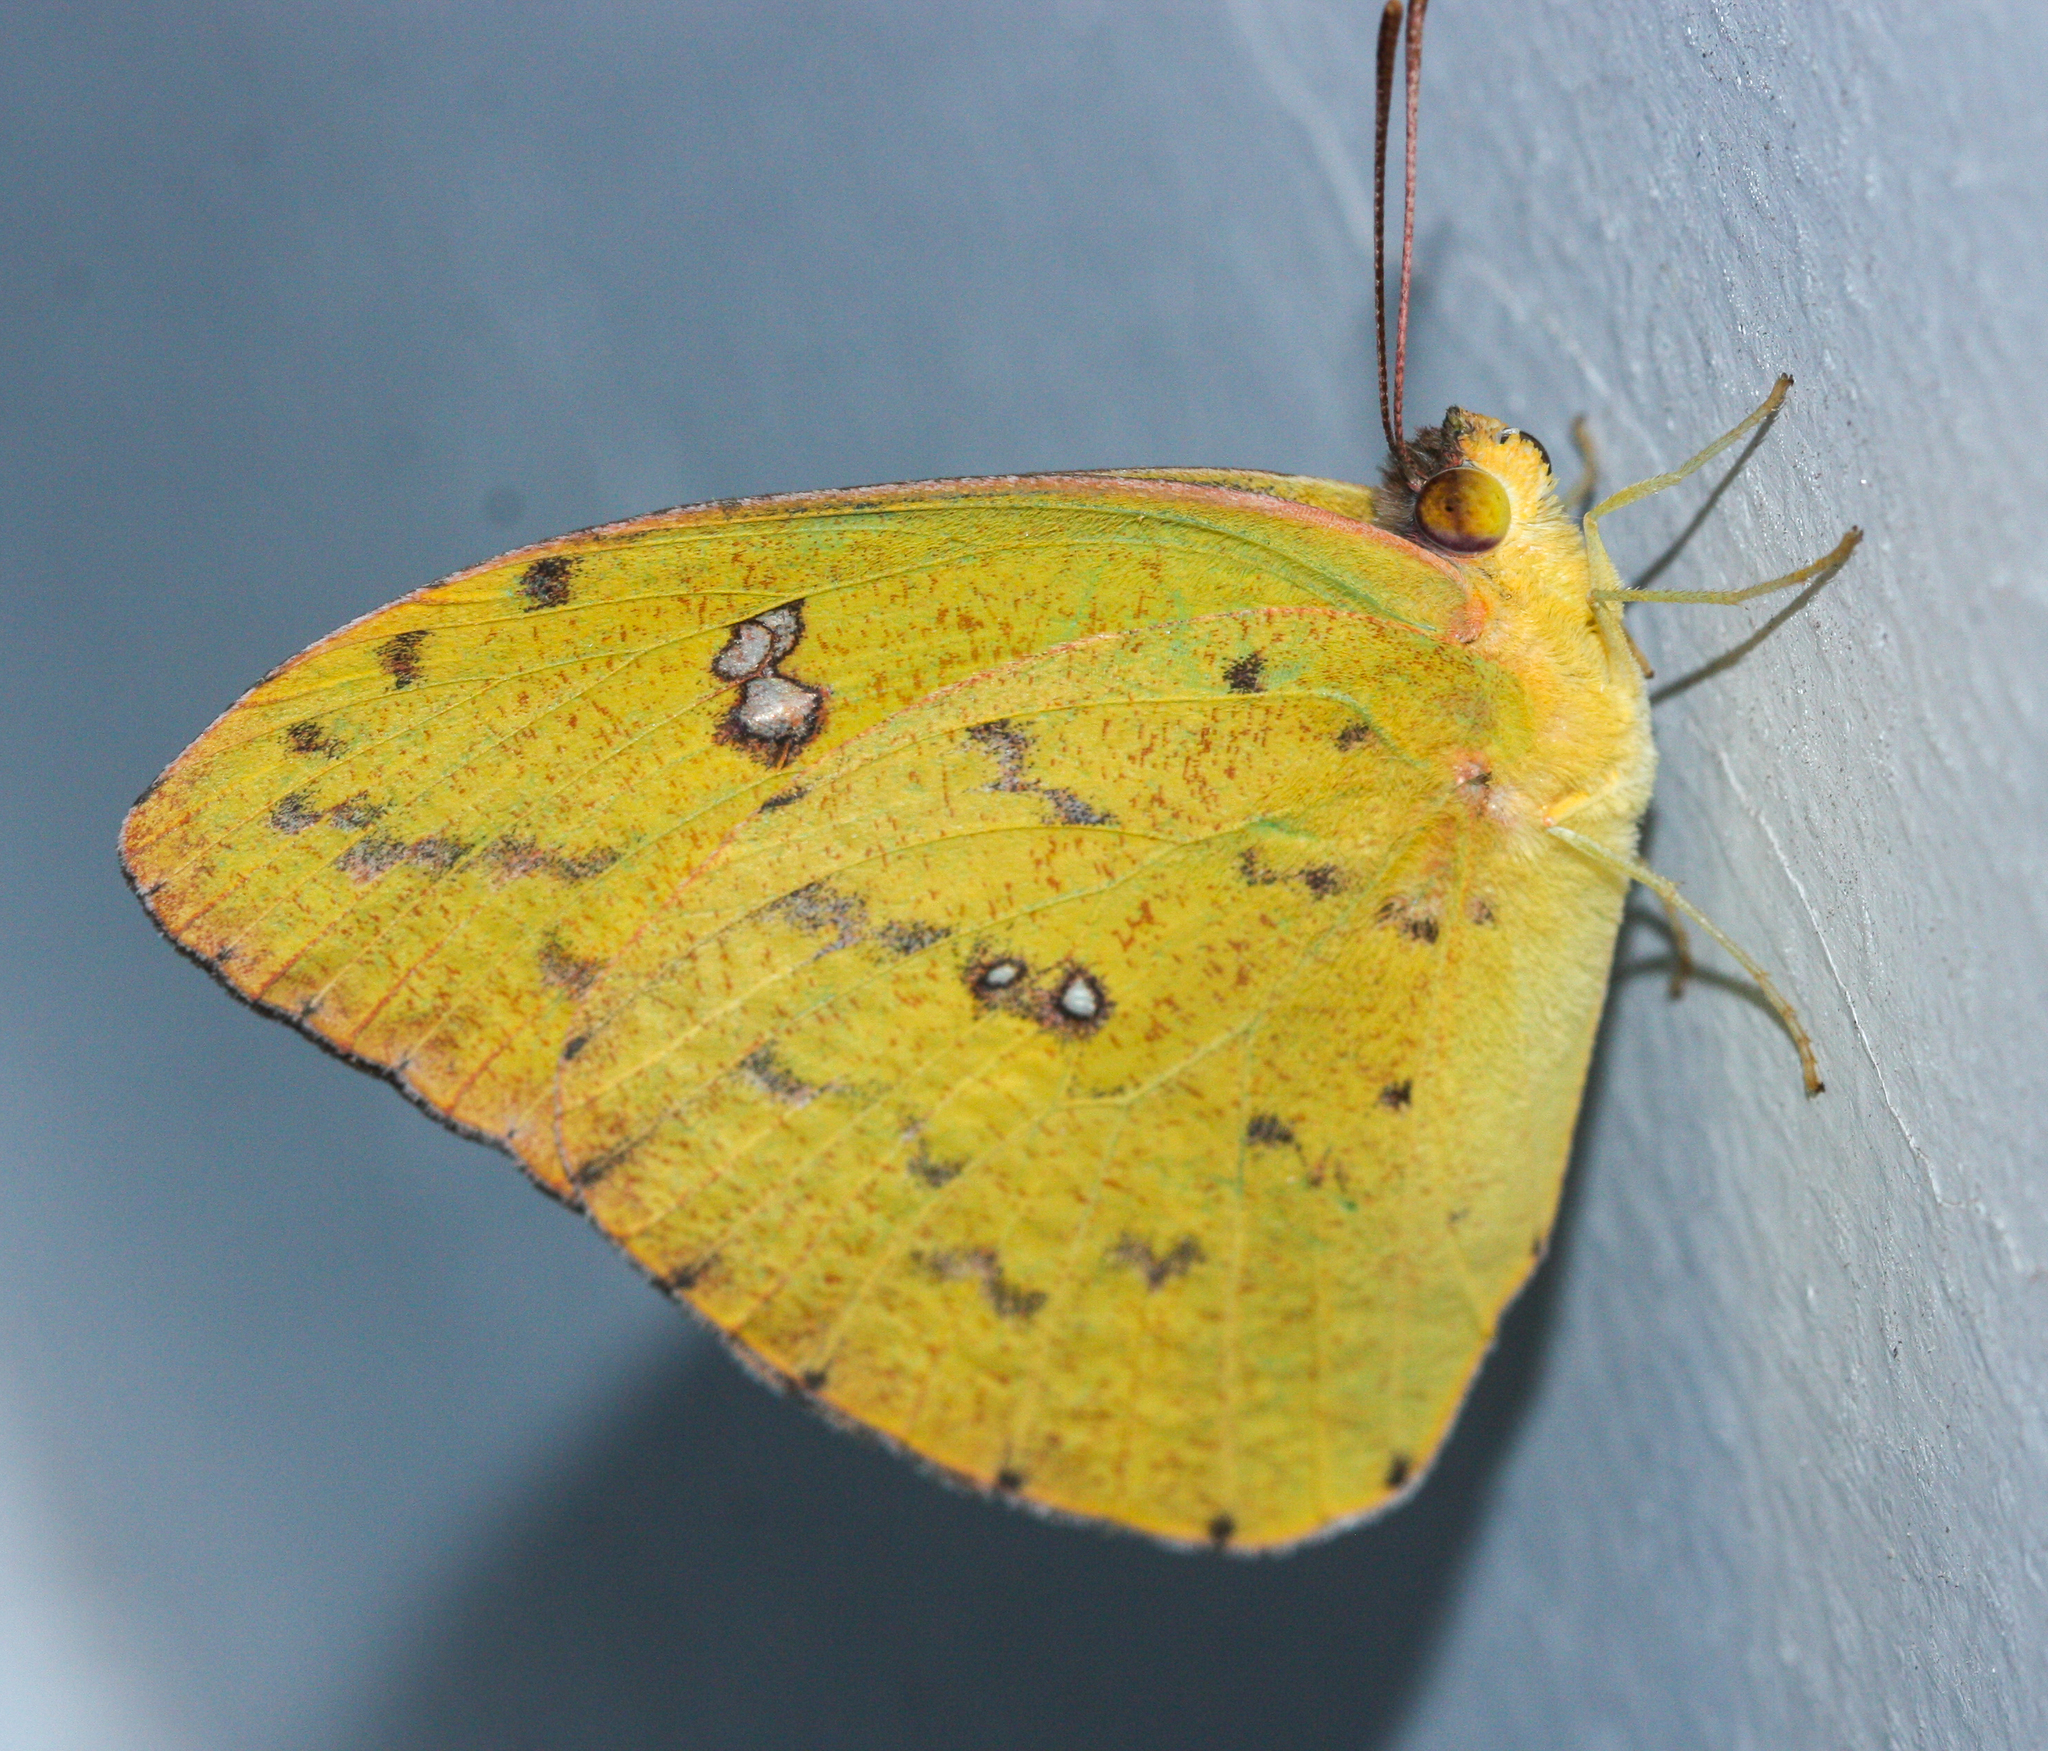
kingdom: Animalia
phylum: Arthropoda
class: Insecta
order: Lepidoptera
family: Pieridae
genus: Phoebis
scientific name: Phoebis sennae
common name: Cloudless sulphur
